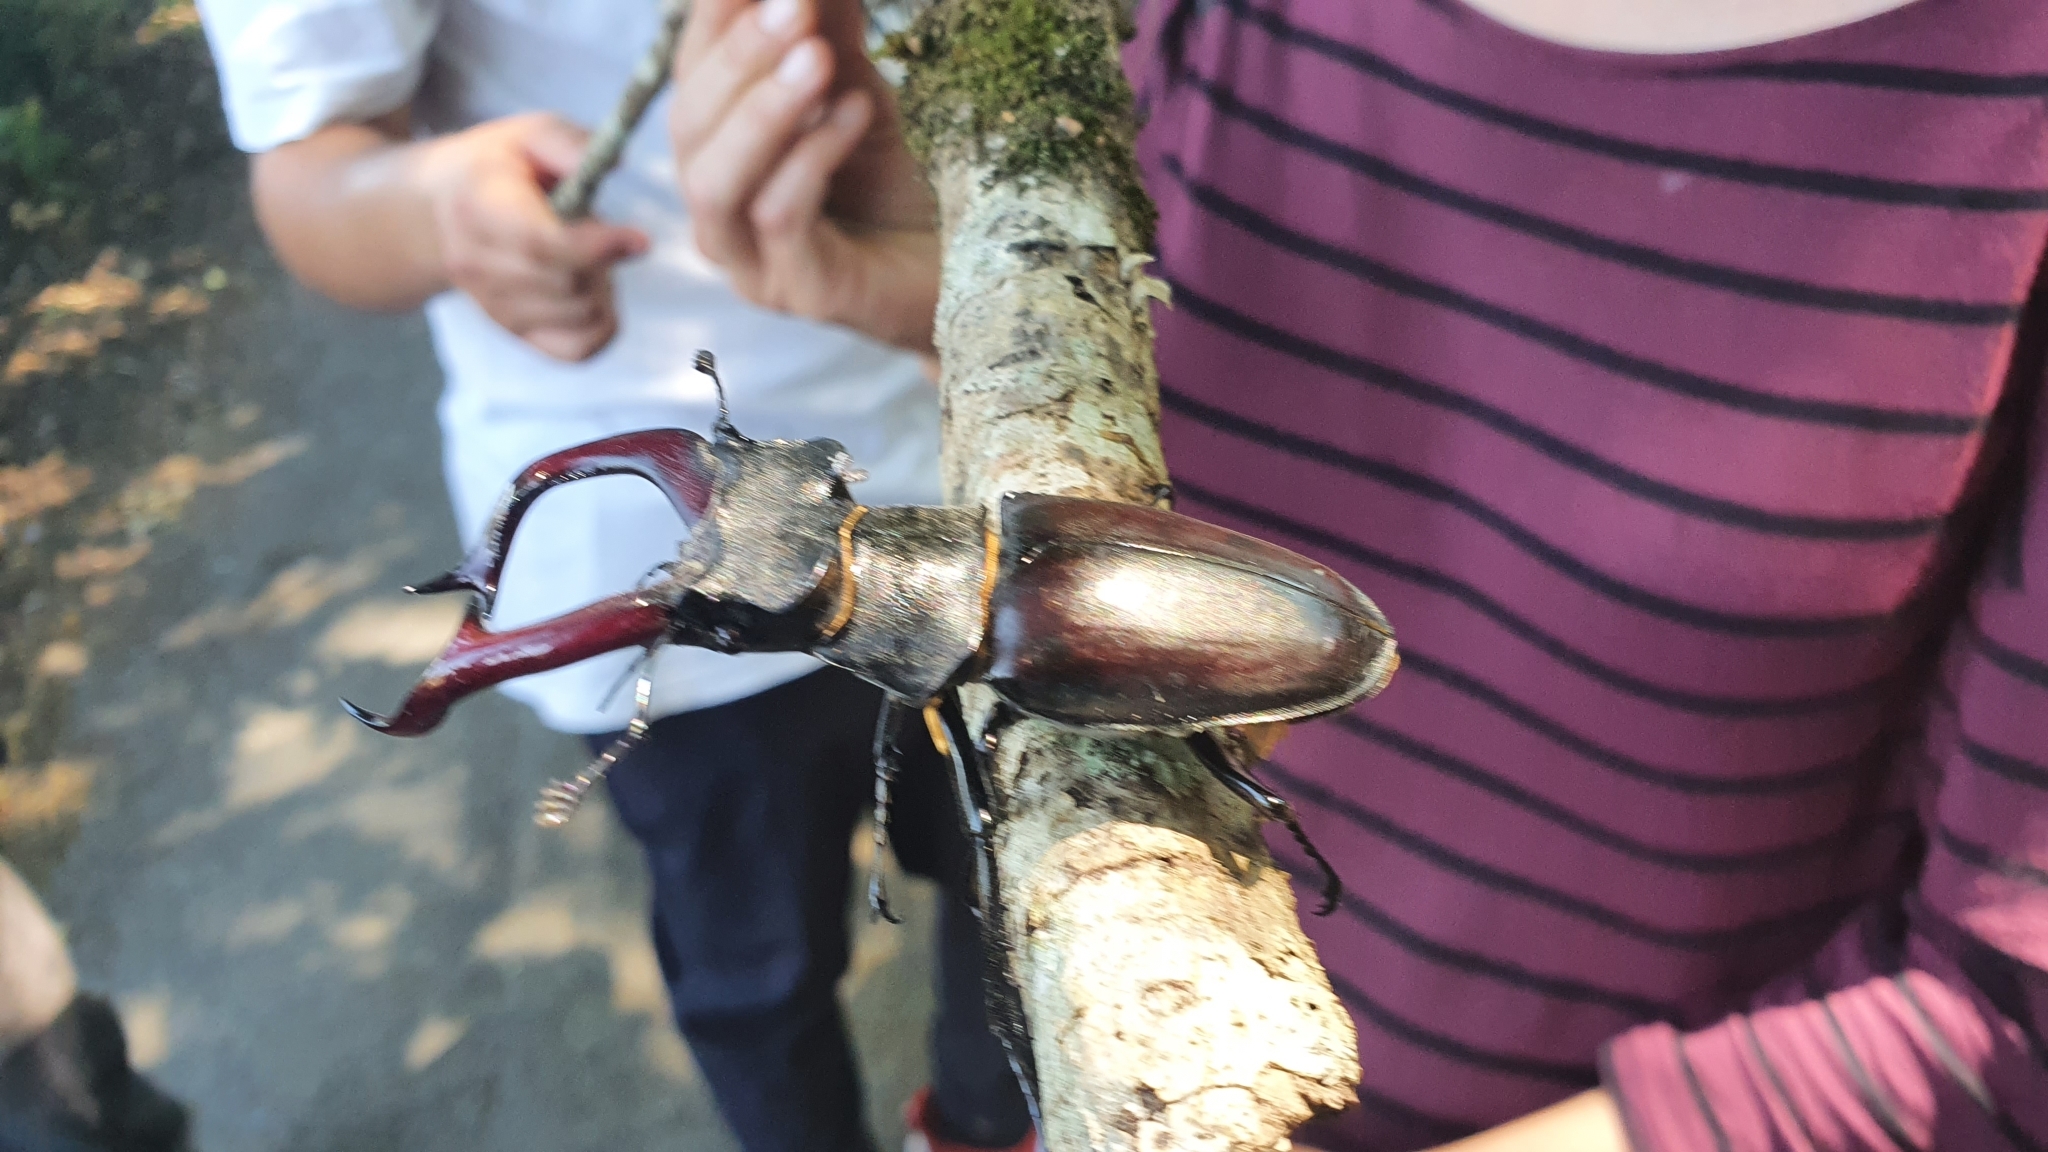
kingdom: Animalia
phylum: Arthropoda
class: Insecta
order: Coleoptera
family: Lucanidae
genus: Lucanus
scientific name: Lucanus cervus
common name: Stag beetle
